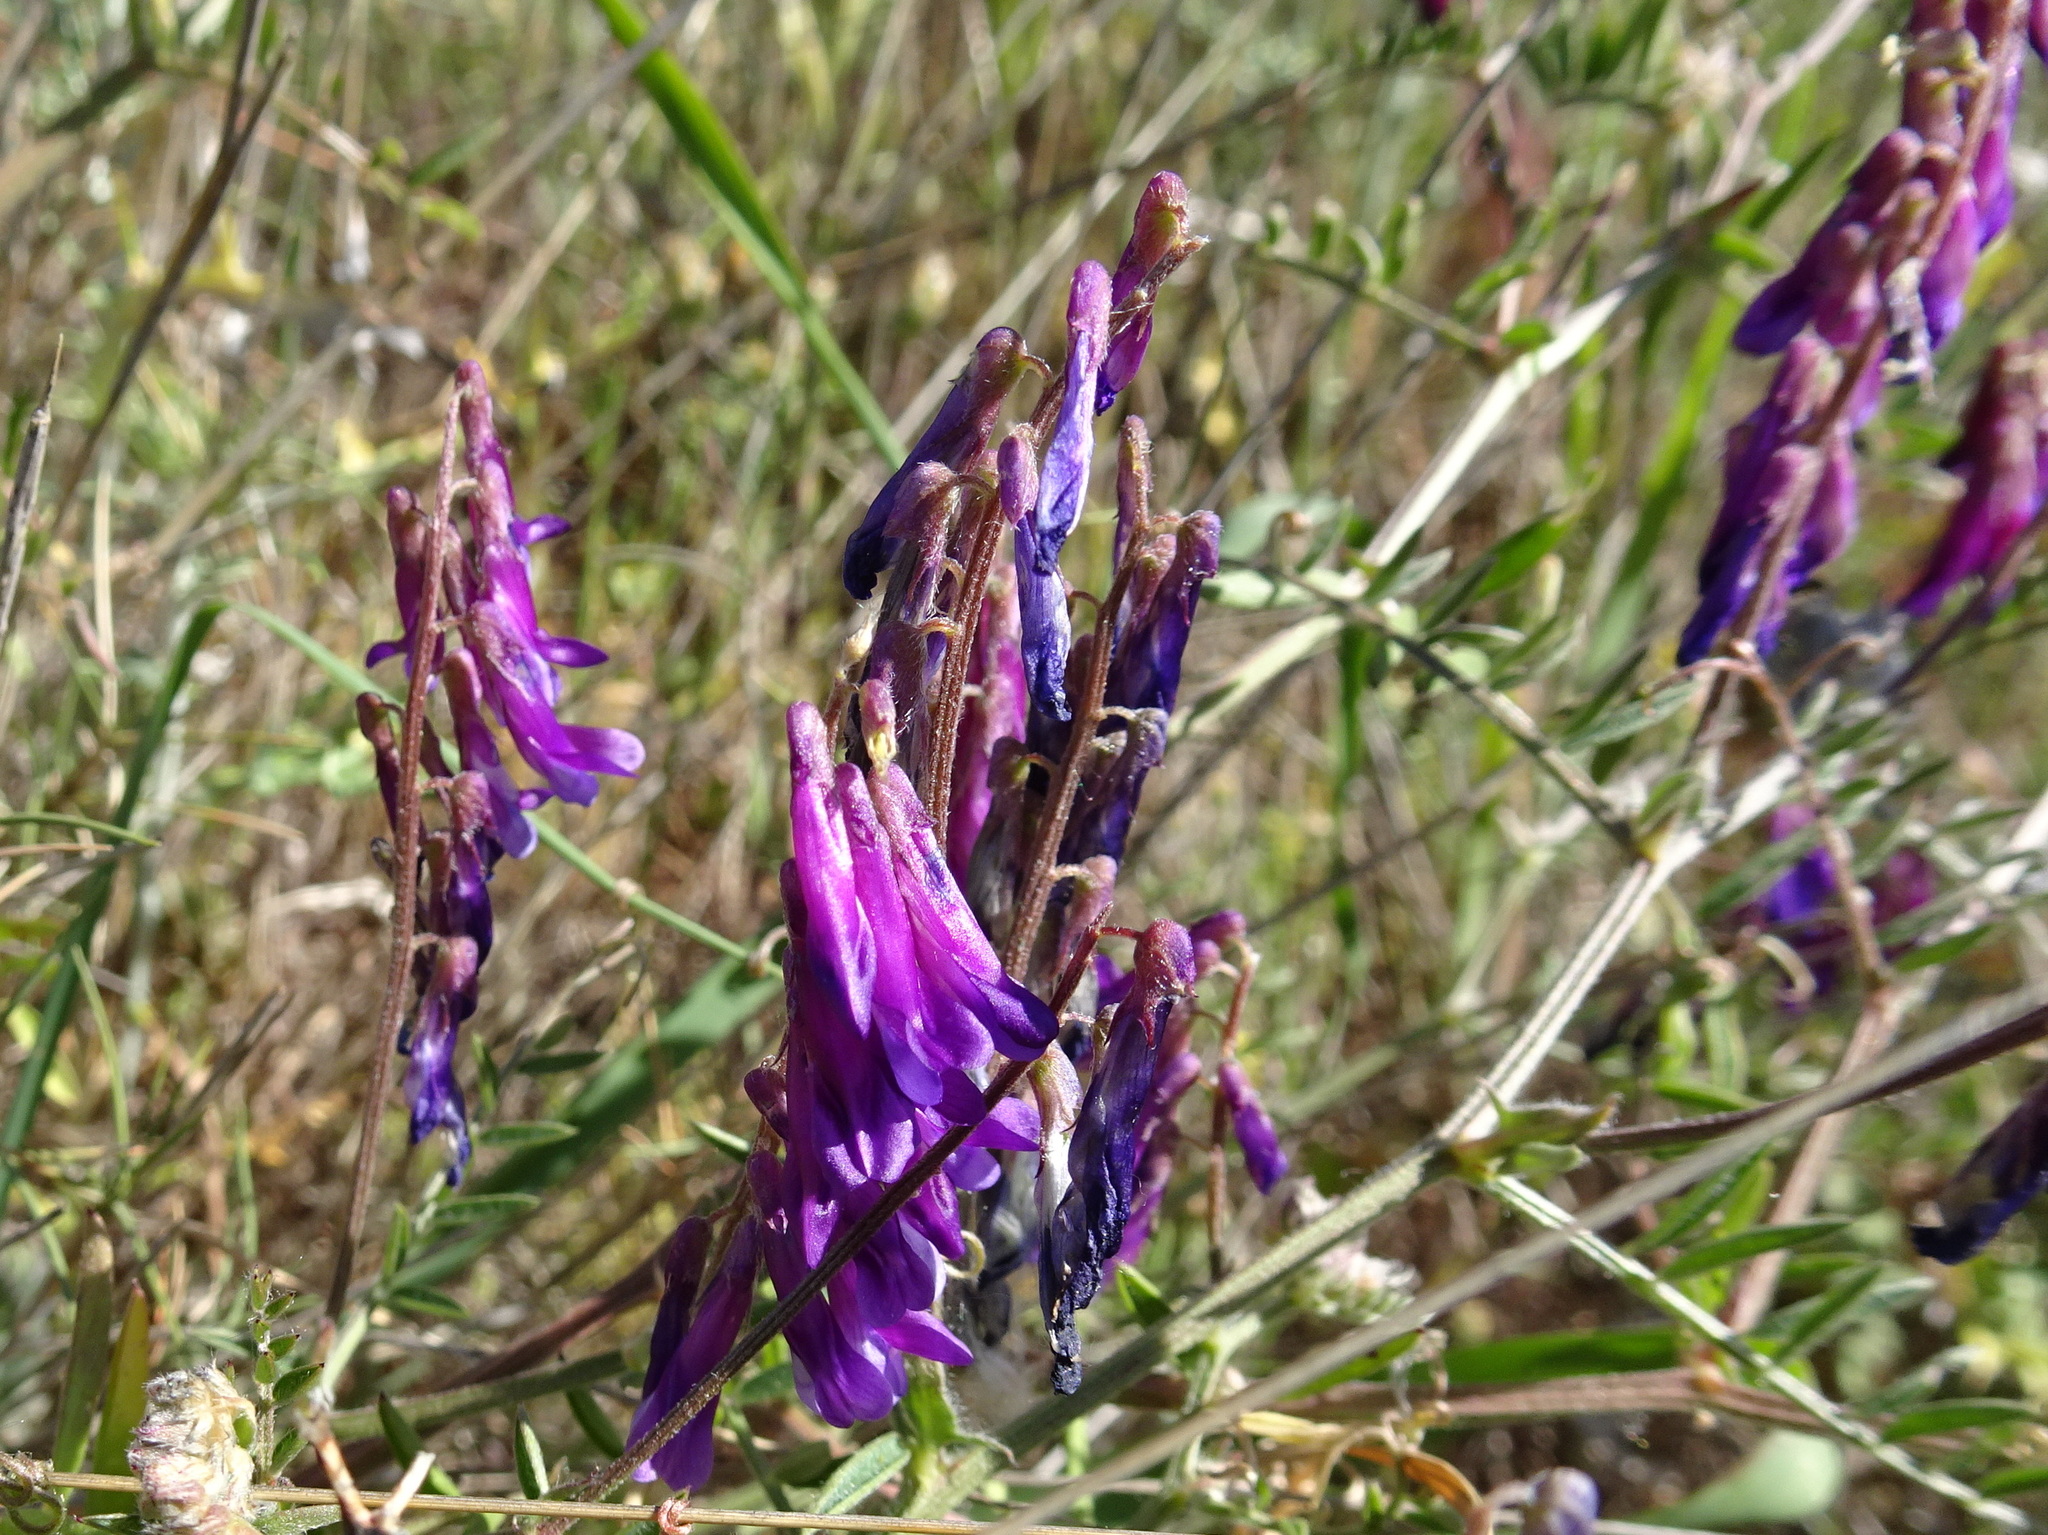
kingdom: Plantae
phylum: Tracheophyta
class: Magnoliopsida
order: Fabales
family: Fabaceae
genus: Vicia
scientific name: Vicia villosa
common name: Fodder vetch
